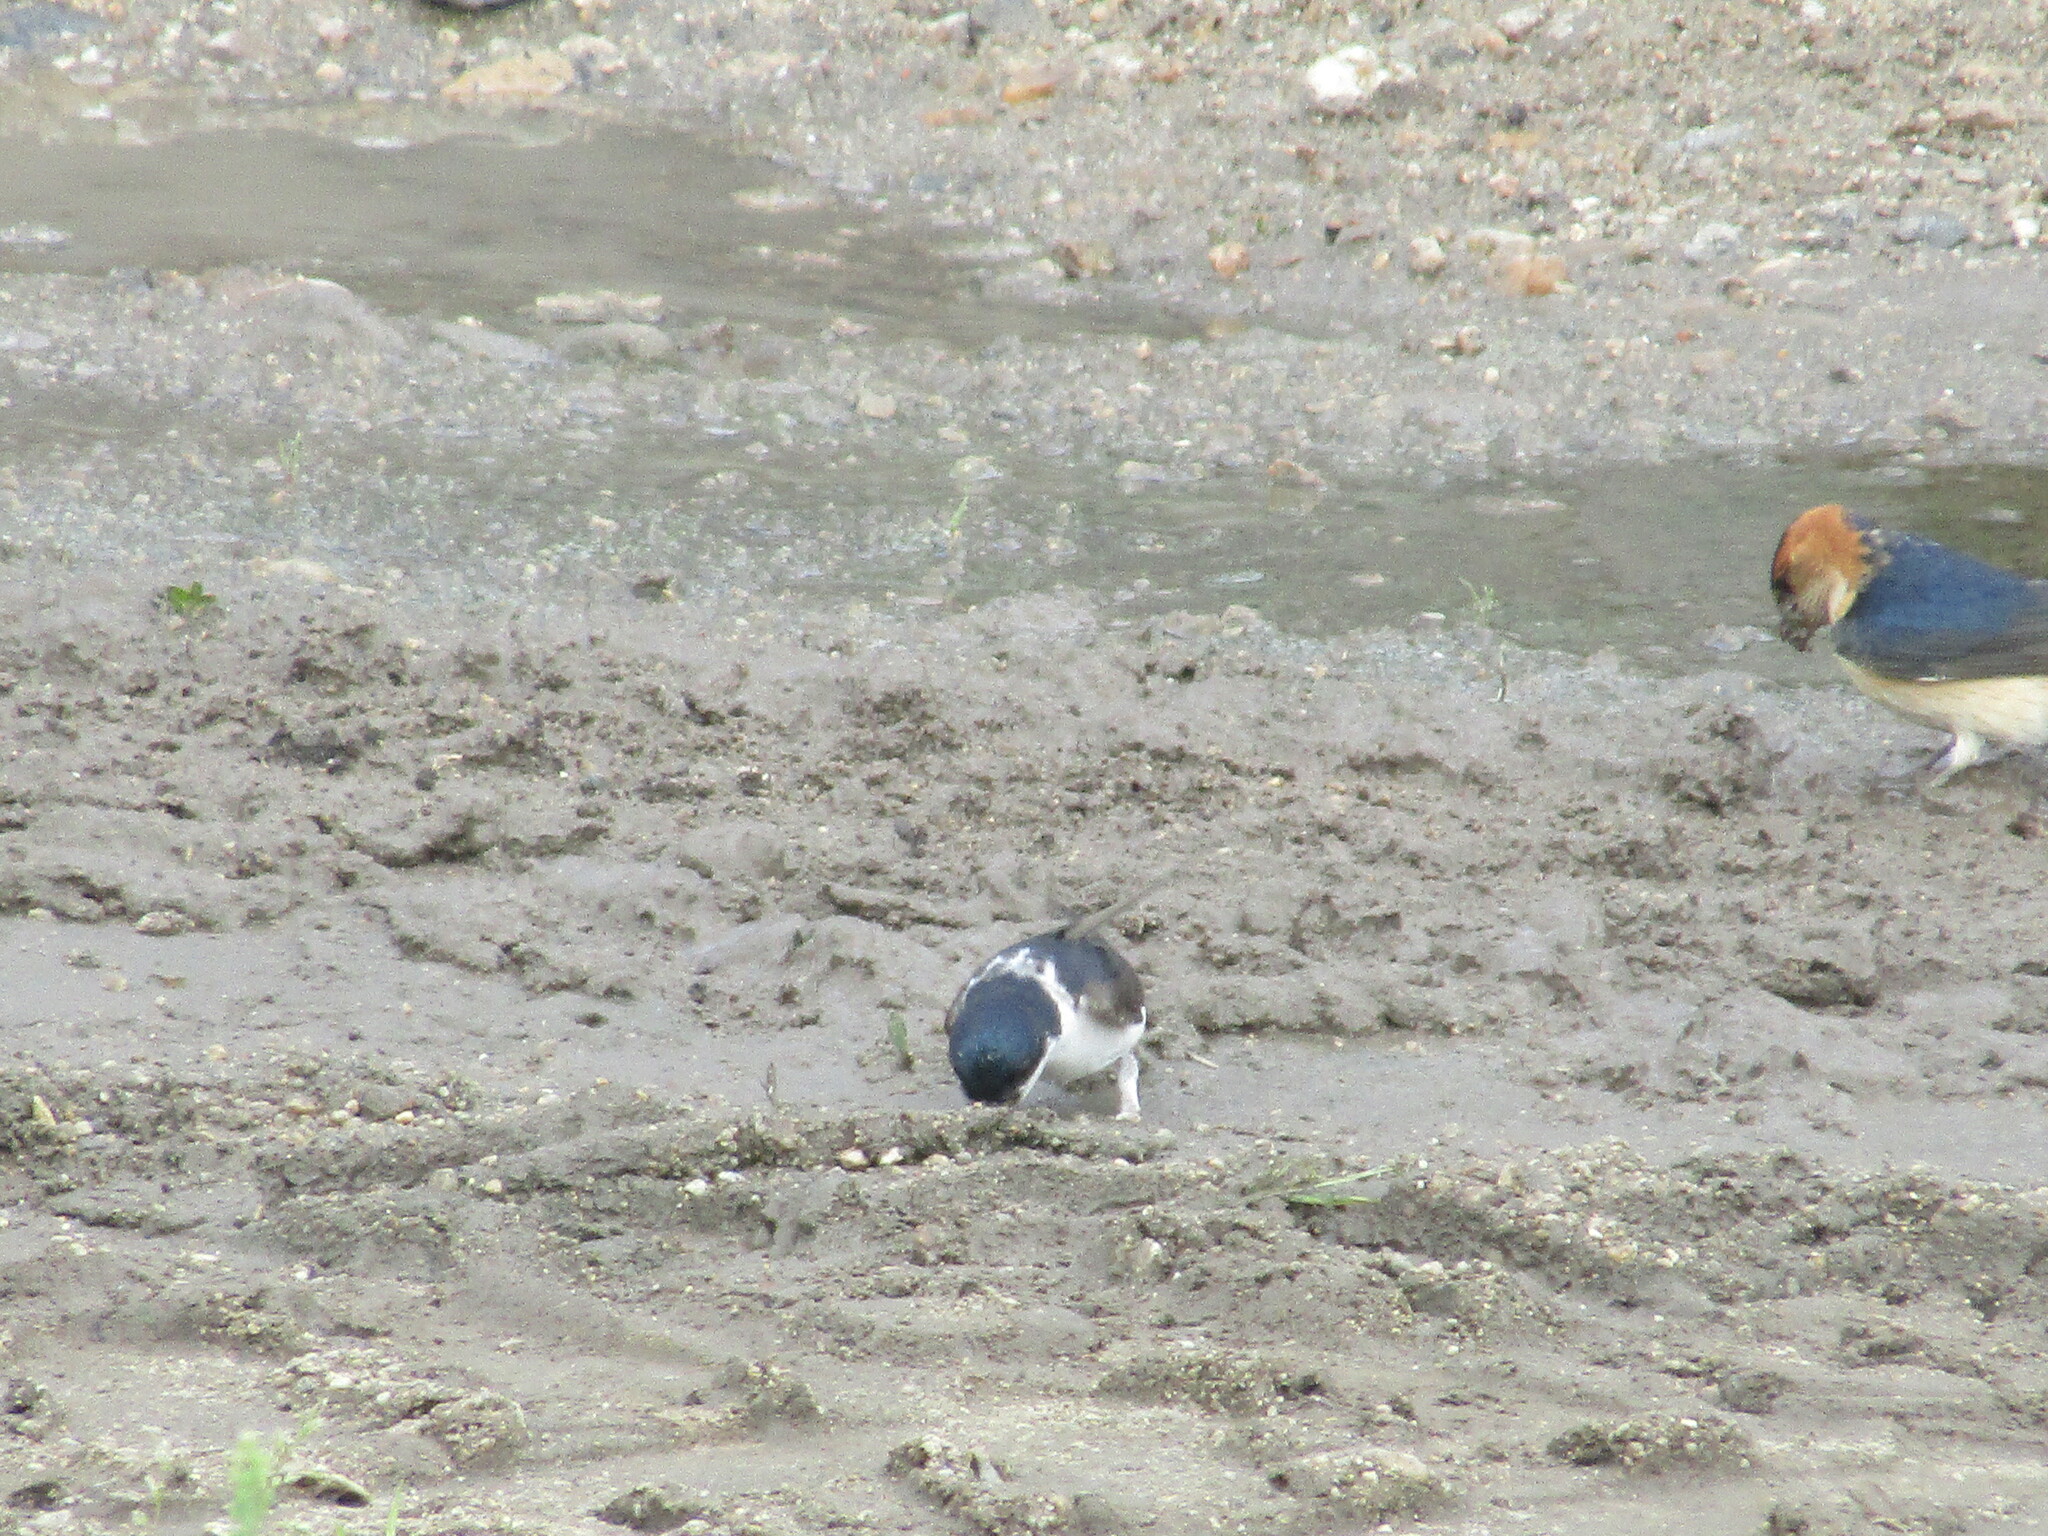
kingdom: Animalia
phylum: Chordata
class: Aves
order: Passeriformes
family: Hirundinidae
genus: Delichon
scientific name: Delichon urbicum
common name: Common house martin
